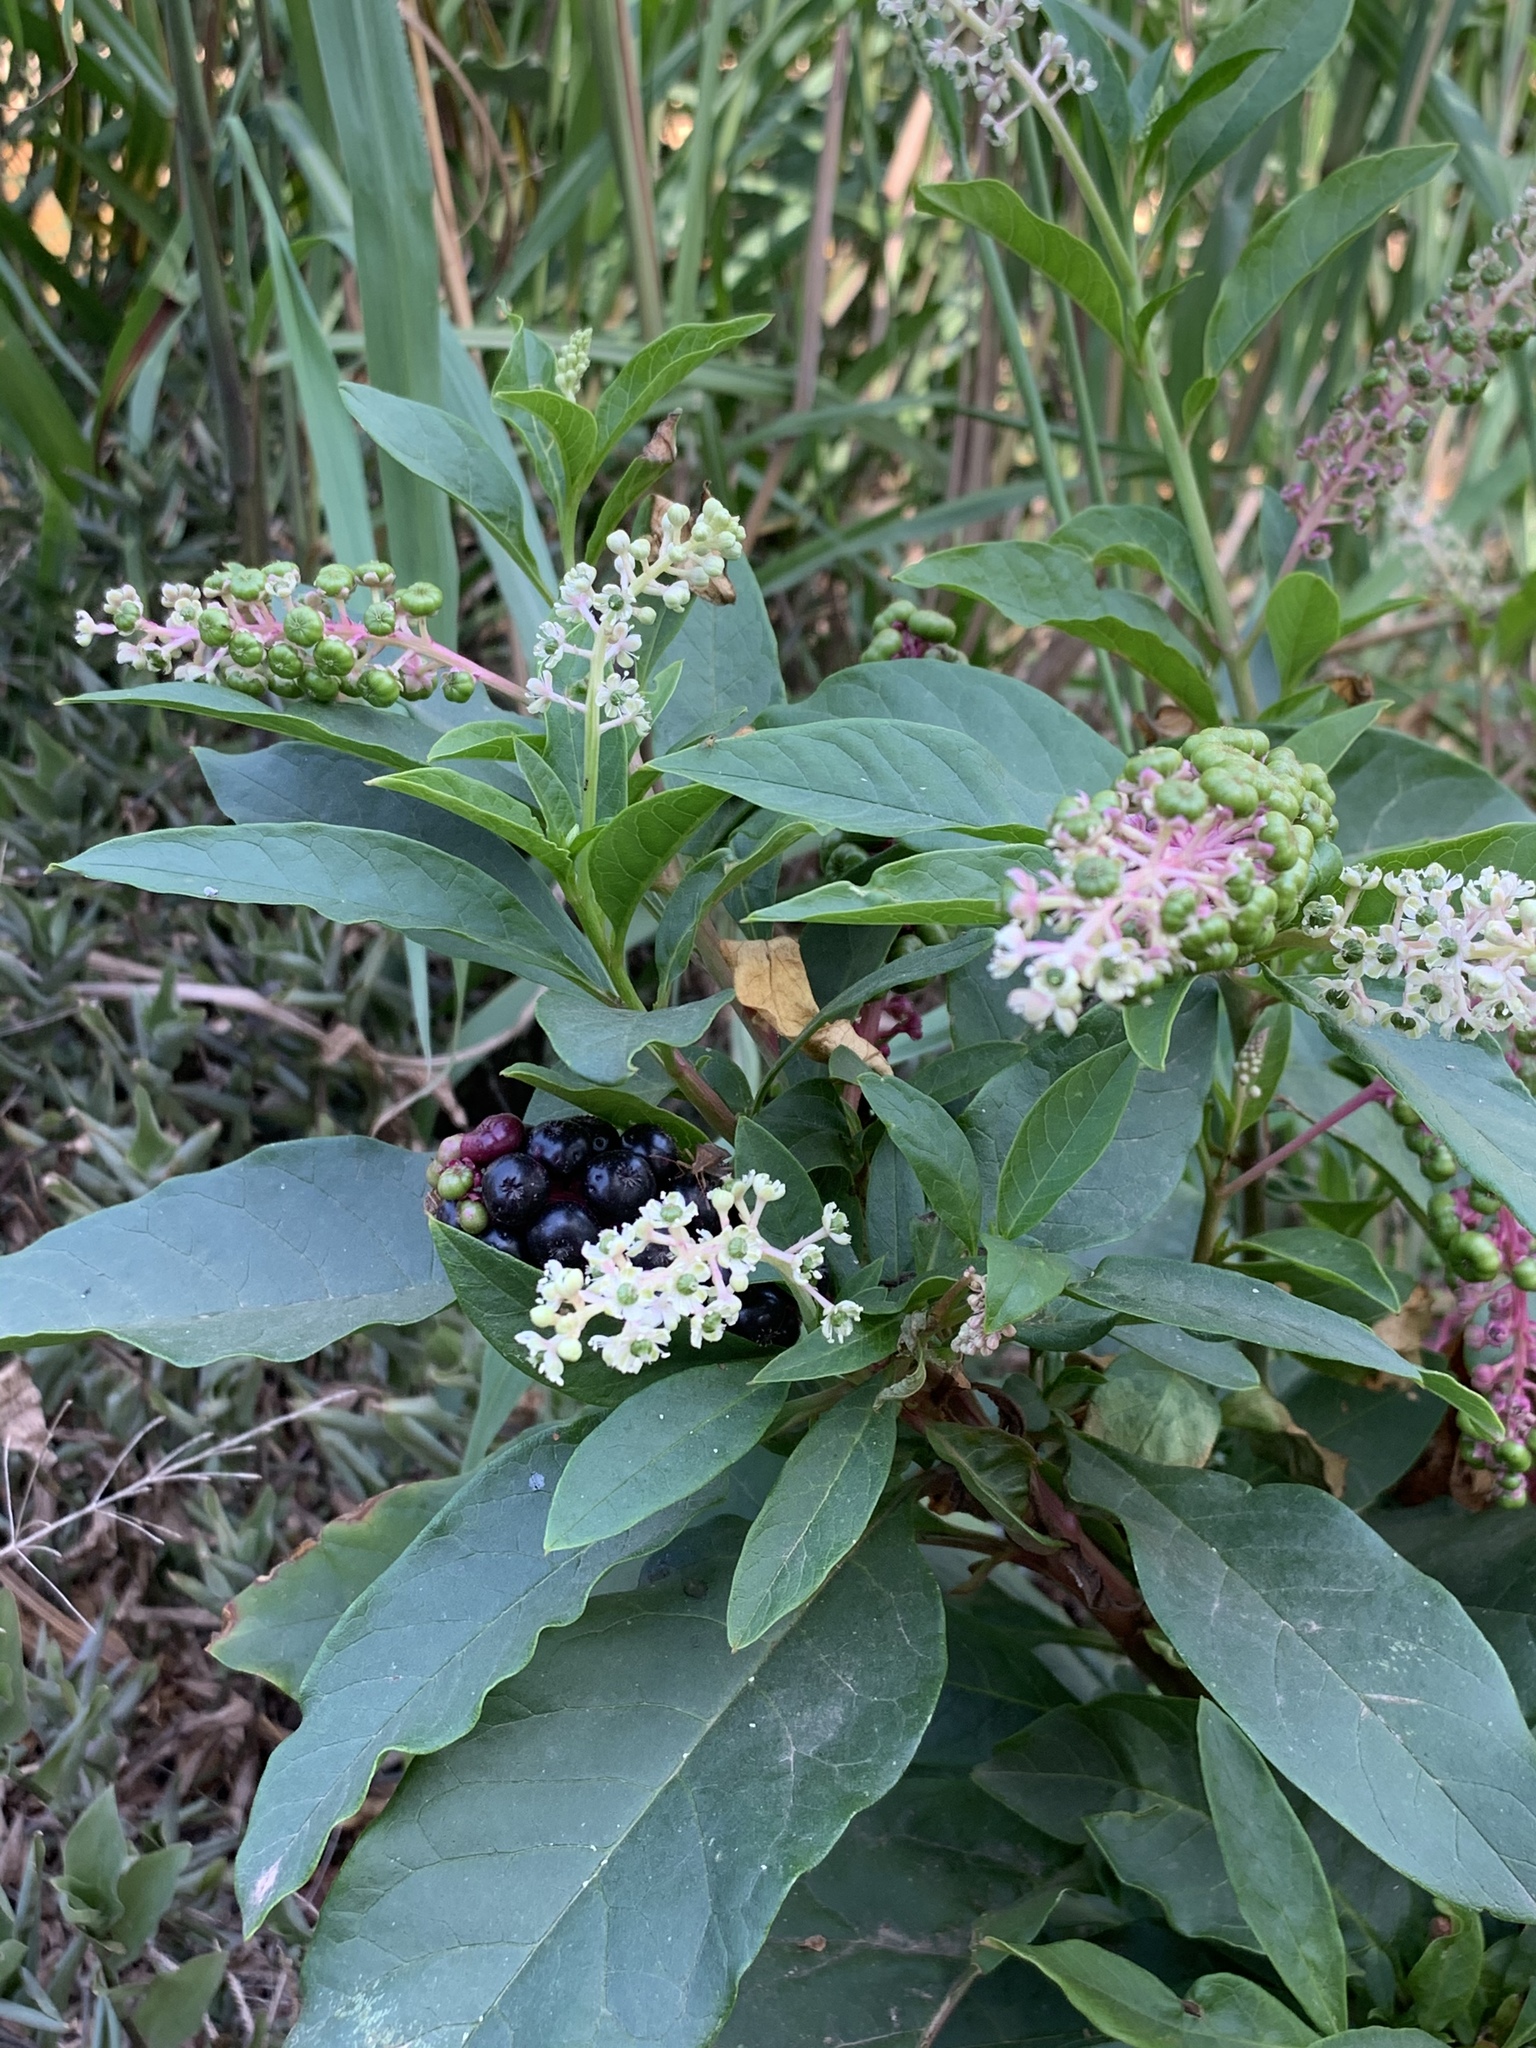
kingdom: Plantae
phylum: Tracheophyta
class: Magnoliopsida
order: Caryophyllales
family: Phytolaccaceae
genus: Phytolacca
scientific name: Phytolacca americana
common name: American pokeweed
